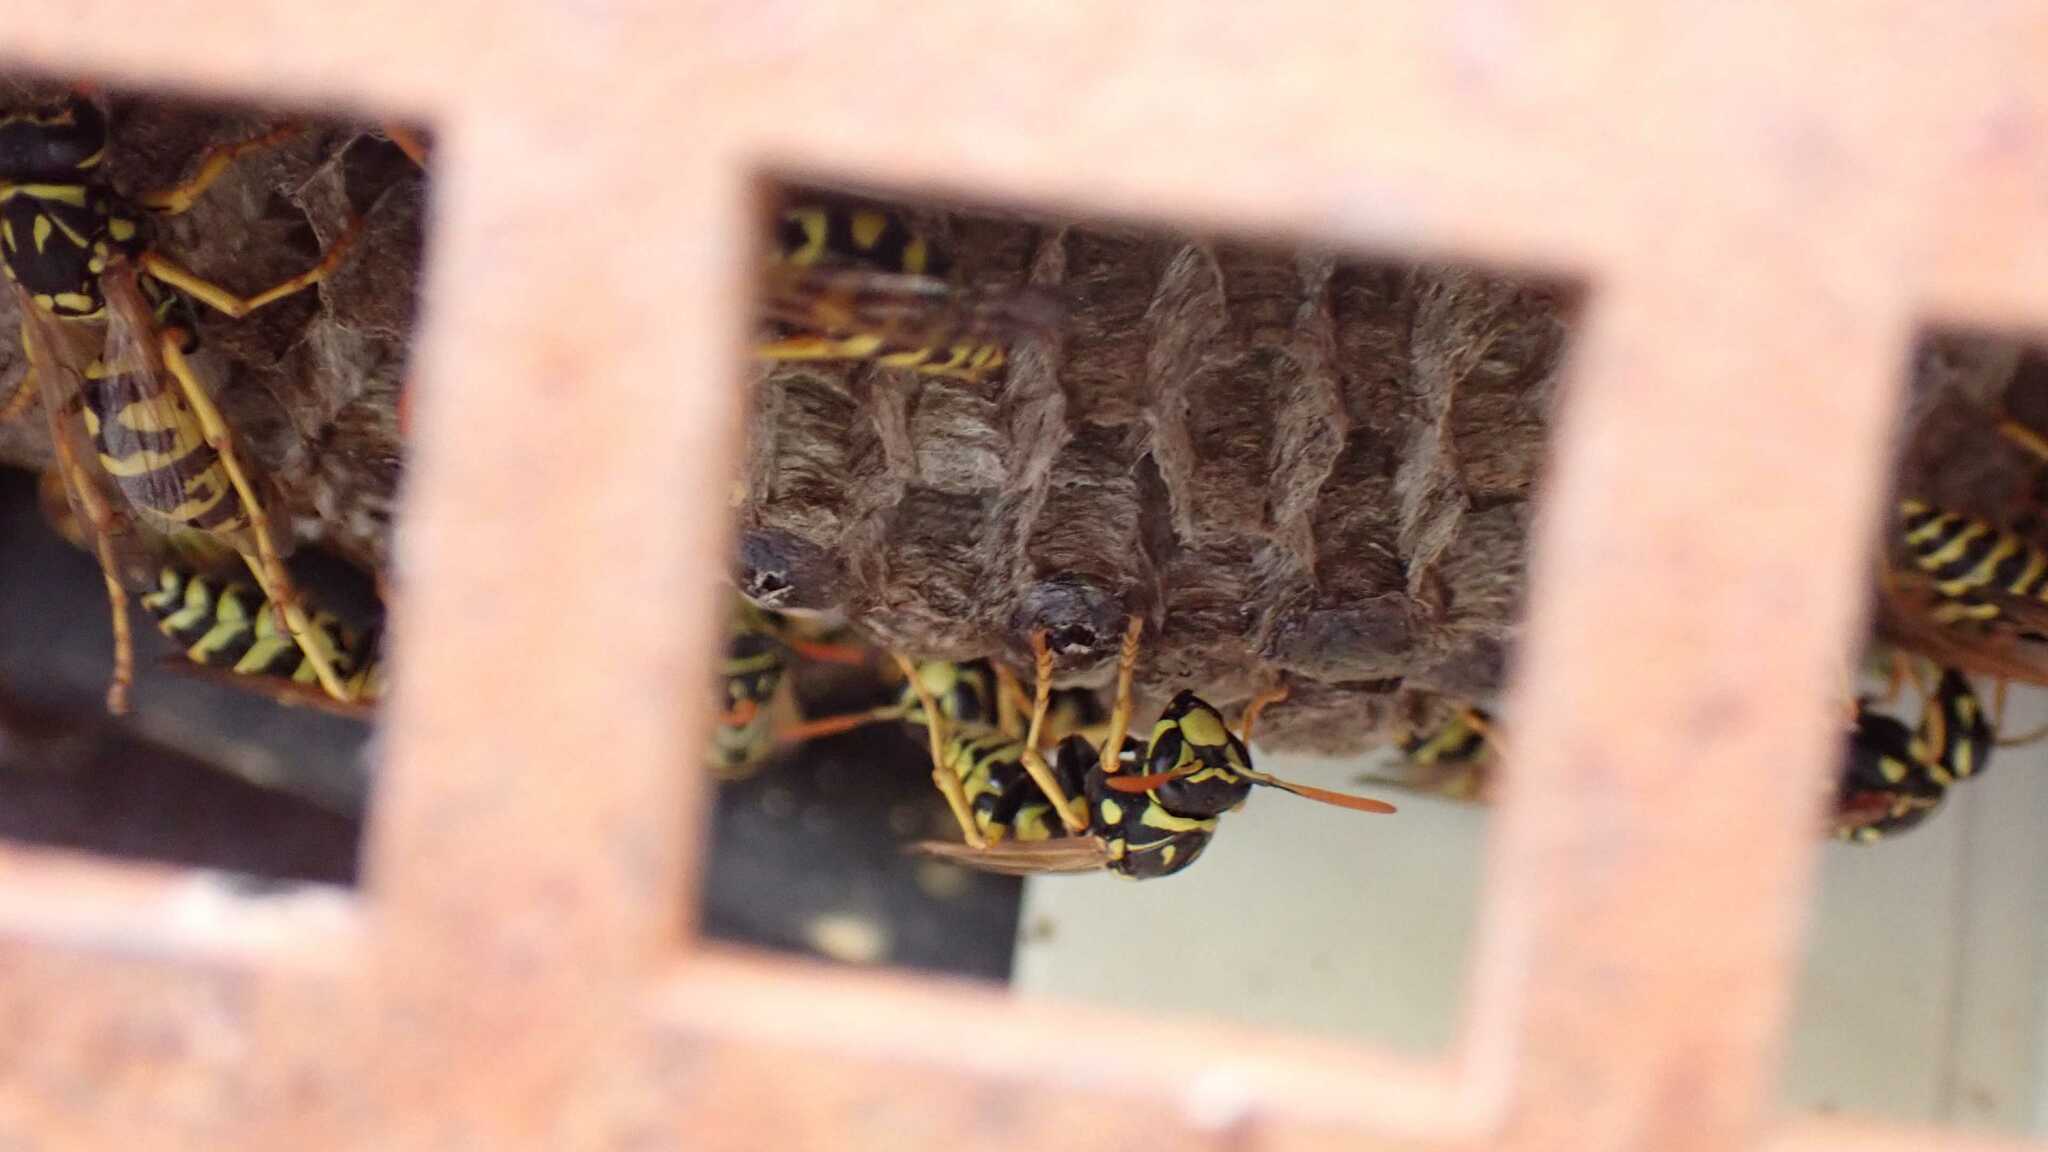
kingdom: Animalia
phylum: Arthropoda
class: Insecta
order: Hymenoptera
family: Eumenidae
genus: Polistes
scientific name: Polistes dominula
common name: Paper wasp
